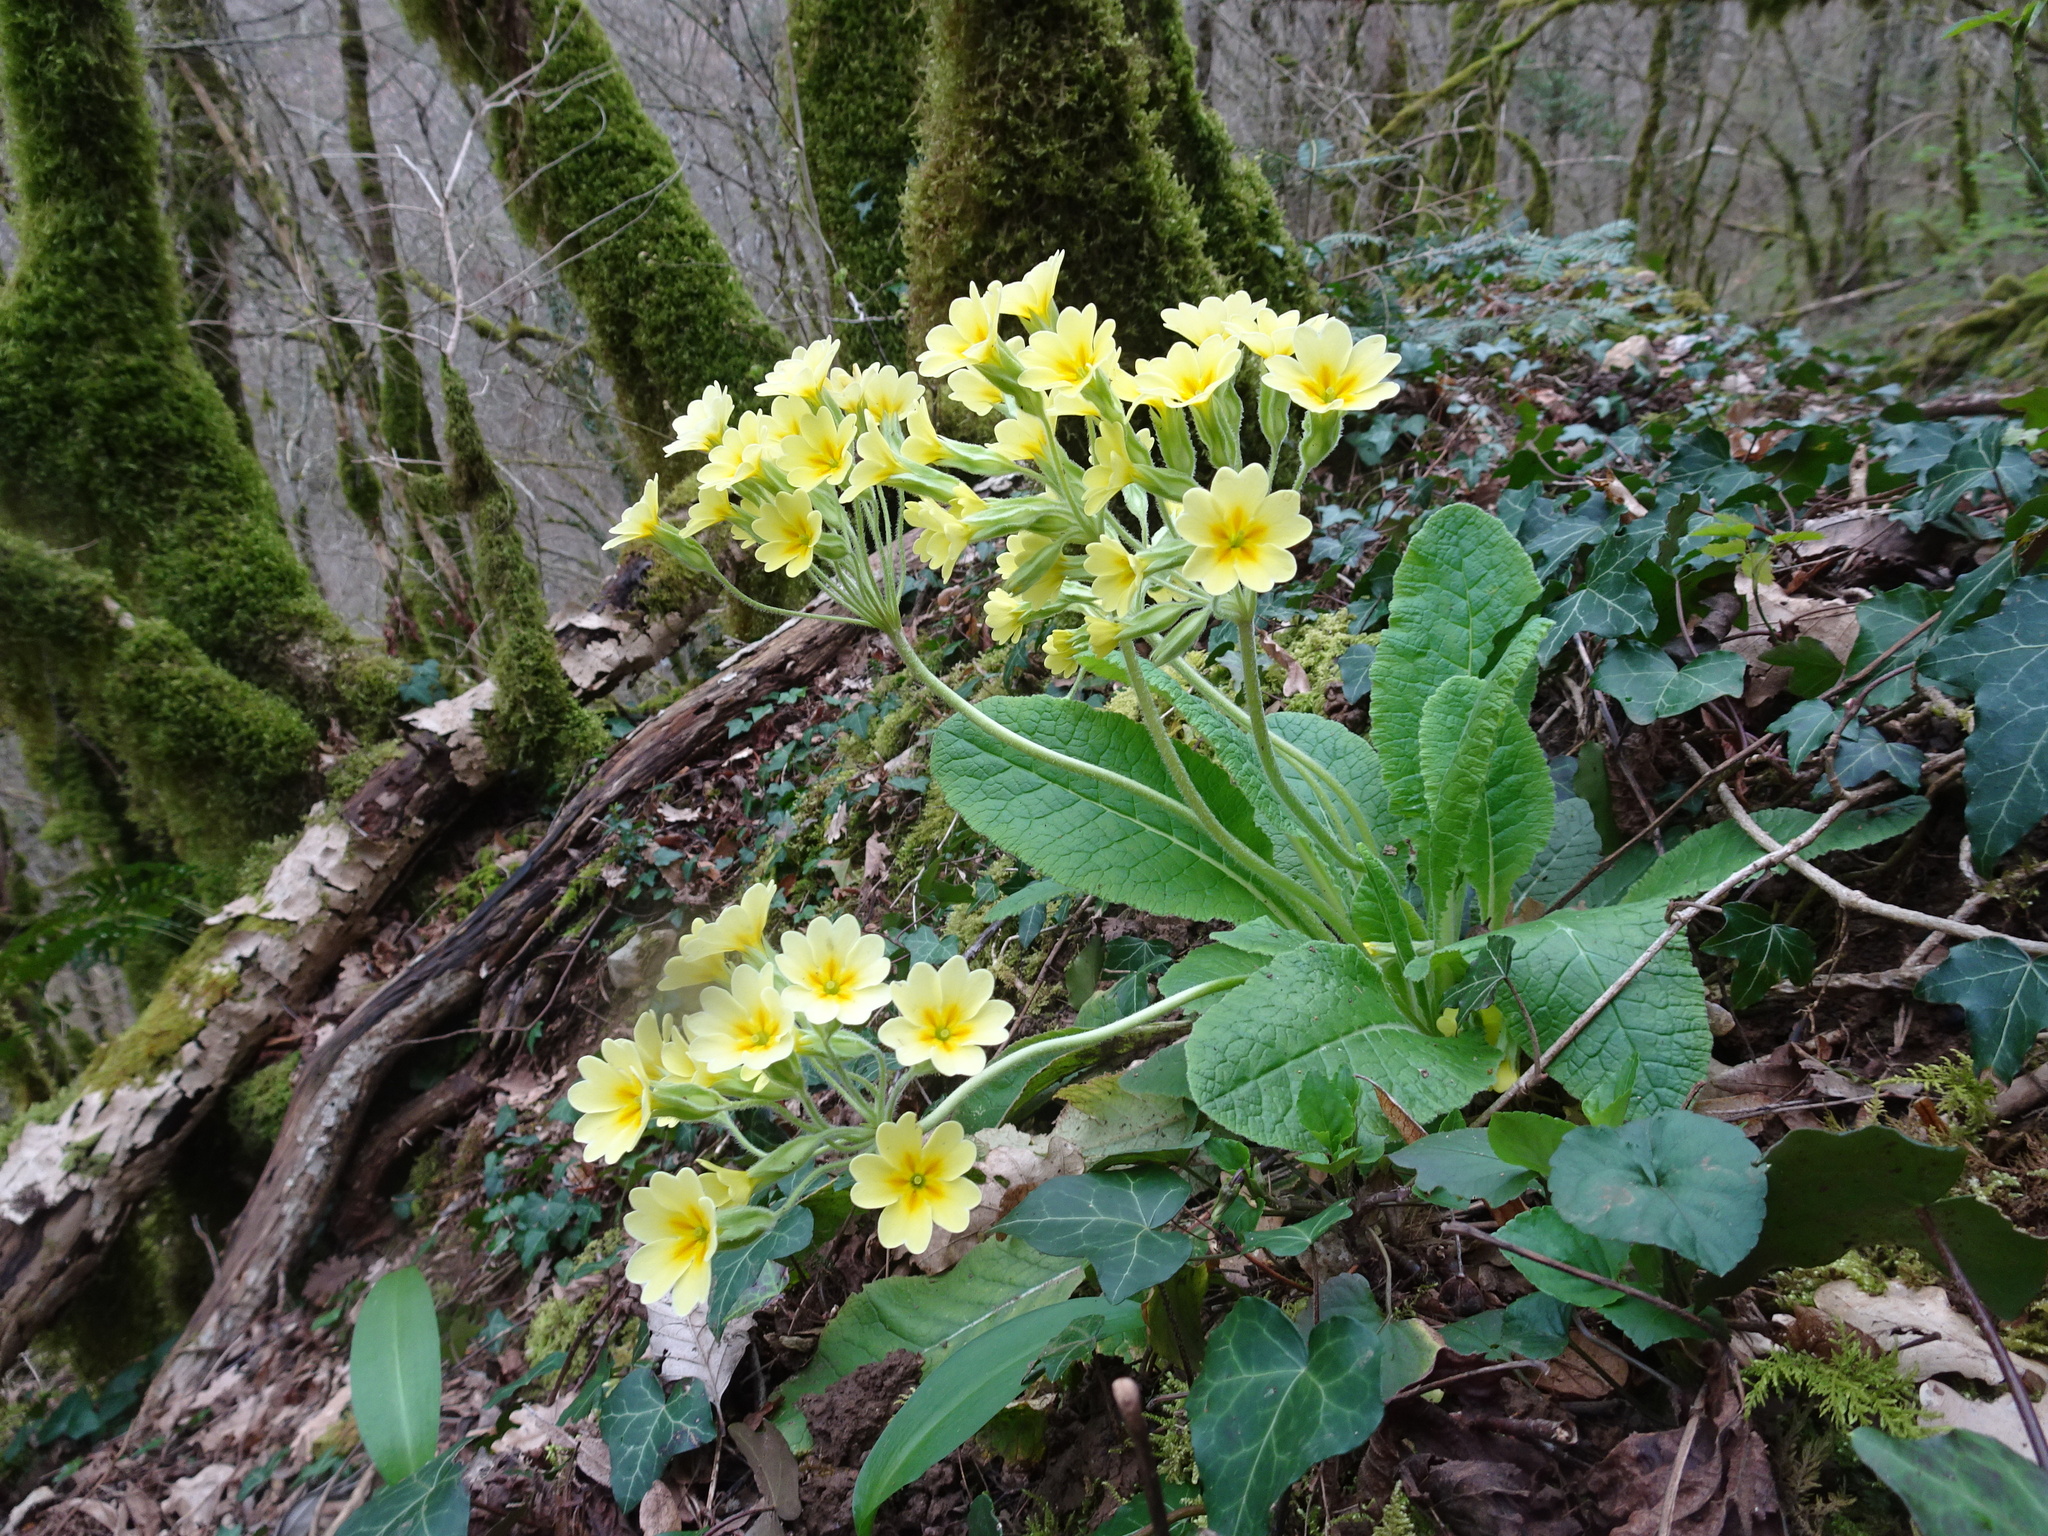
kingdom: Plantae
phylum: Tracheophyta
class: Magnoliopsida
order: Ericales
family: Primulaceae
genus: Primula
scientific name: Primula elatior
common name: Oxlip
